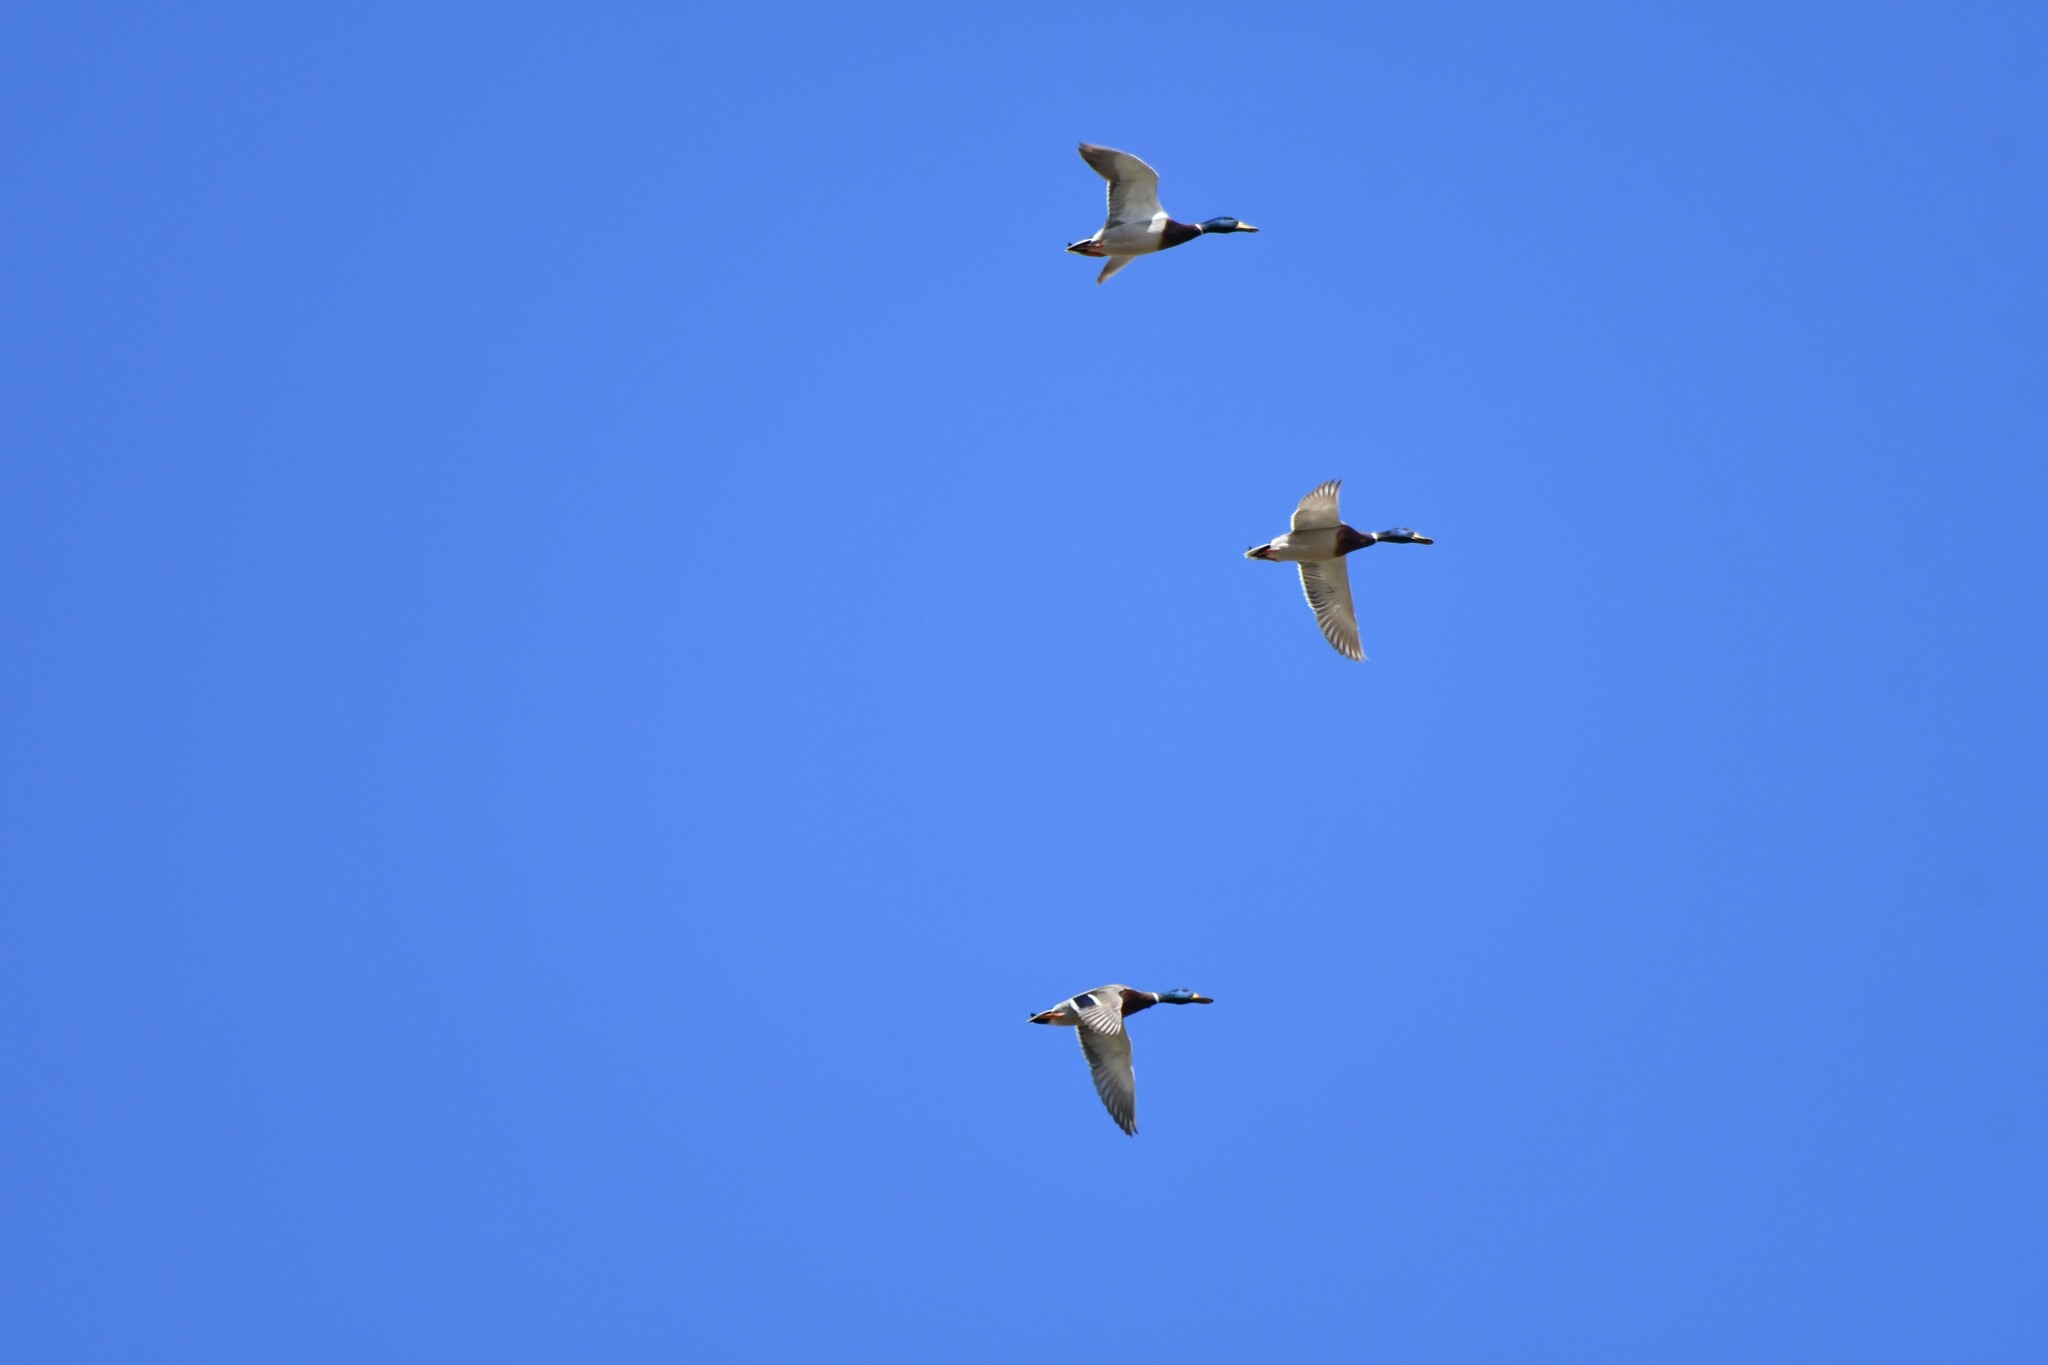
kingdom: Animalia
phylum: Chordata
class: Aves
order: Anseriformes
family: Anatidae
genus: Anas
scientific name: Anas platyrhynchos
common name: Mallard
